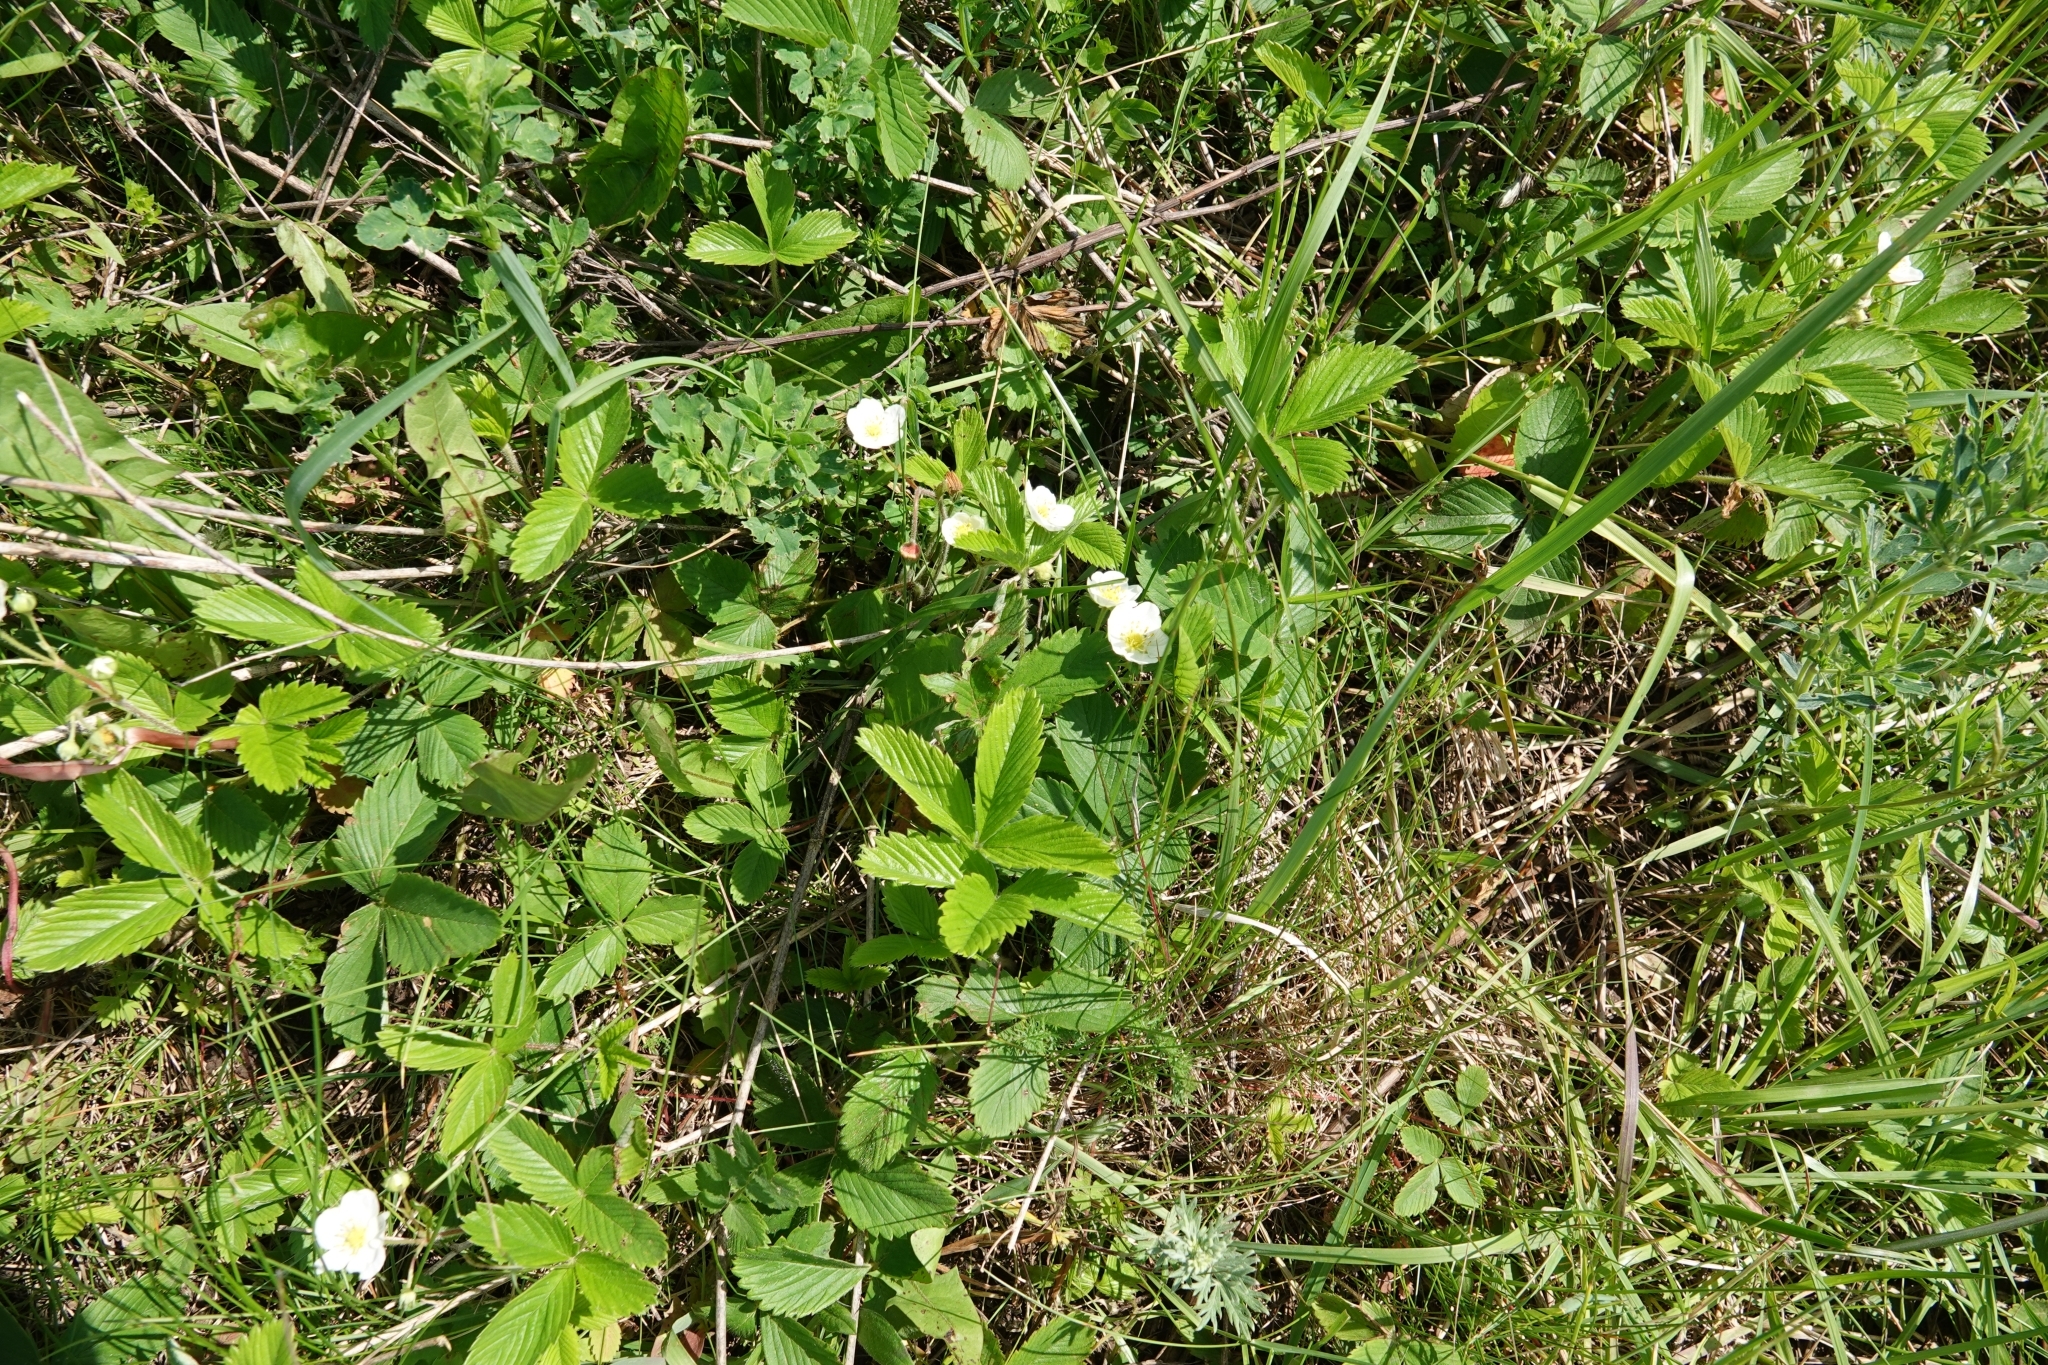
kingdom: Plantae
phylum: Tracheophyta
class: Magnoliopsida
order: Rosales
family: Rosaceae
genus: Fragaria
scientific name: Fragaria viridis
